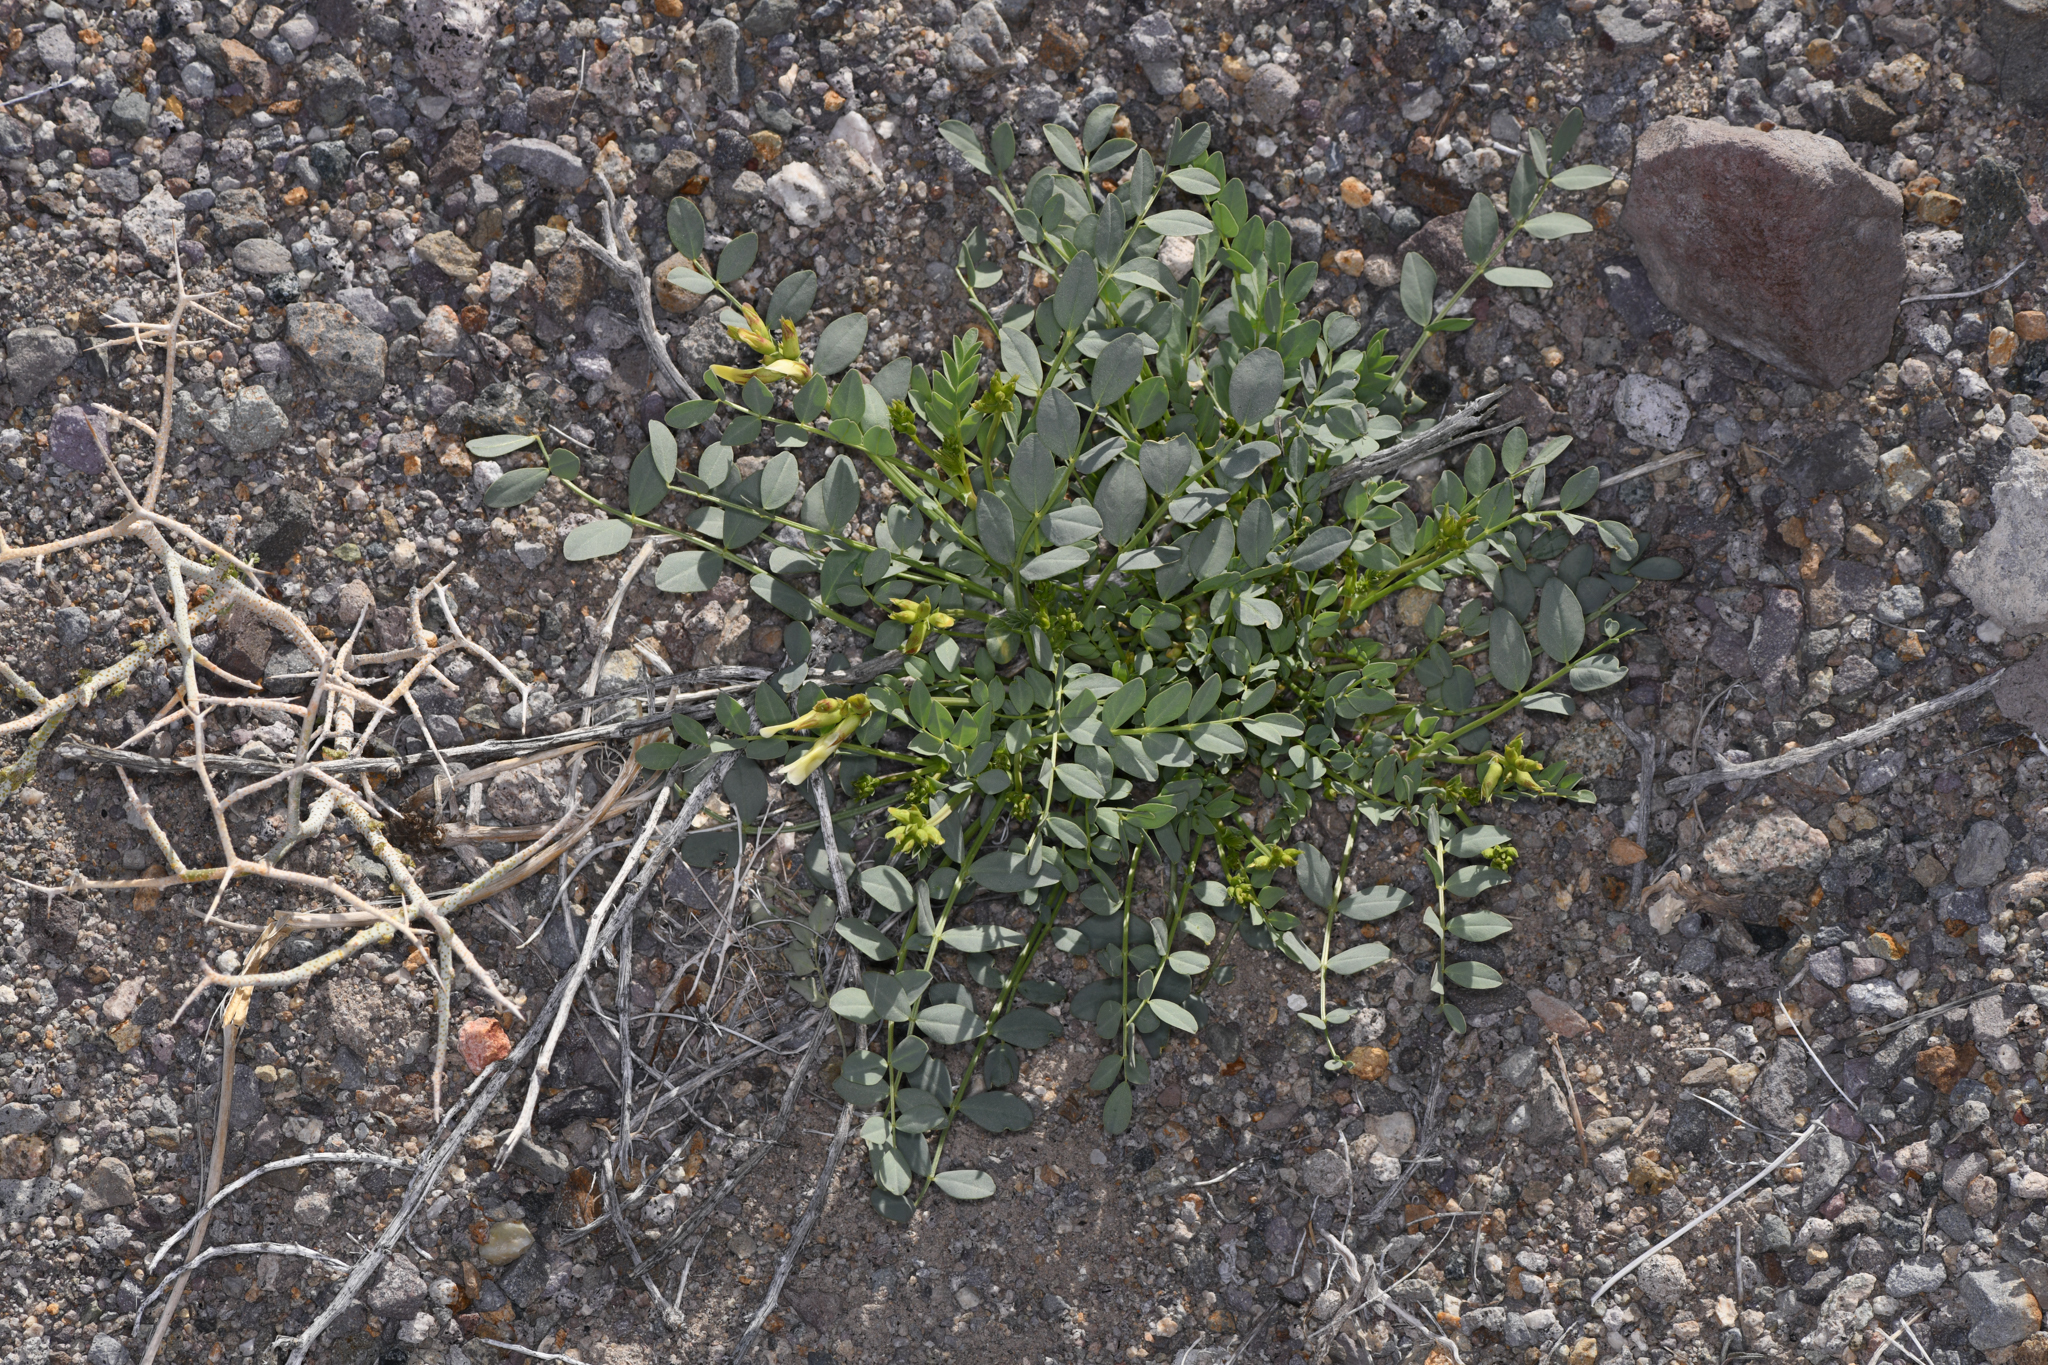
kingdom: Plantae
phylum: Tracheophyta
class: Magnoliopsida
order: Fabales
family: Fabaceae
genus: Astragalus
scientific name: Astragalus oophorus
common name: Egg milkvetch
